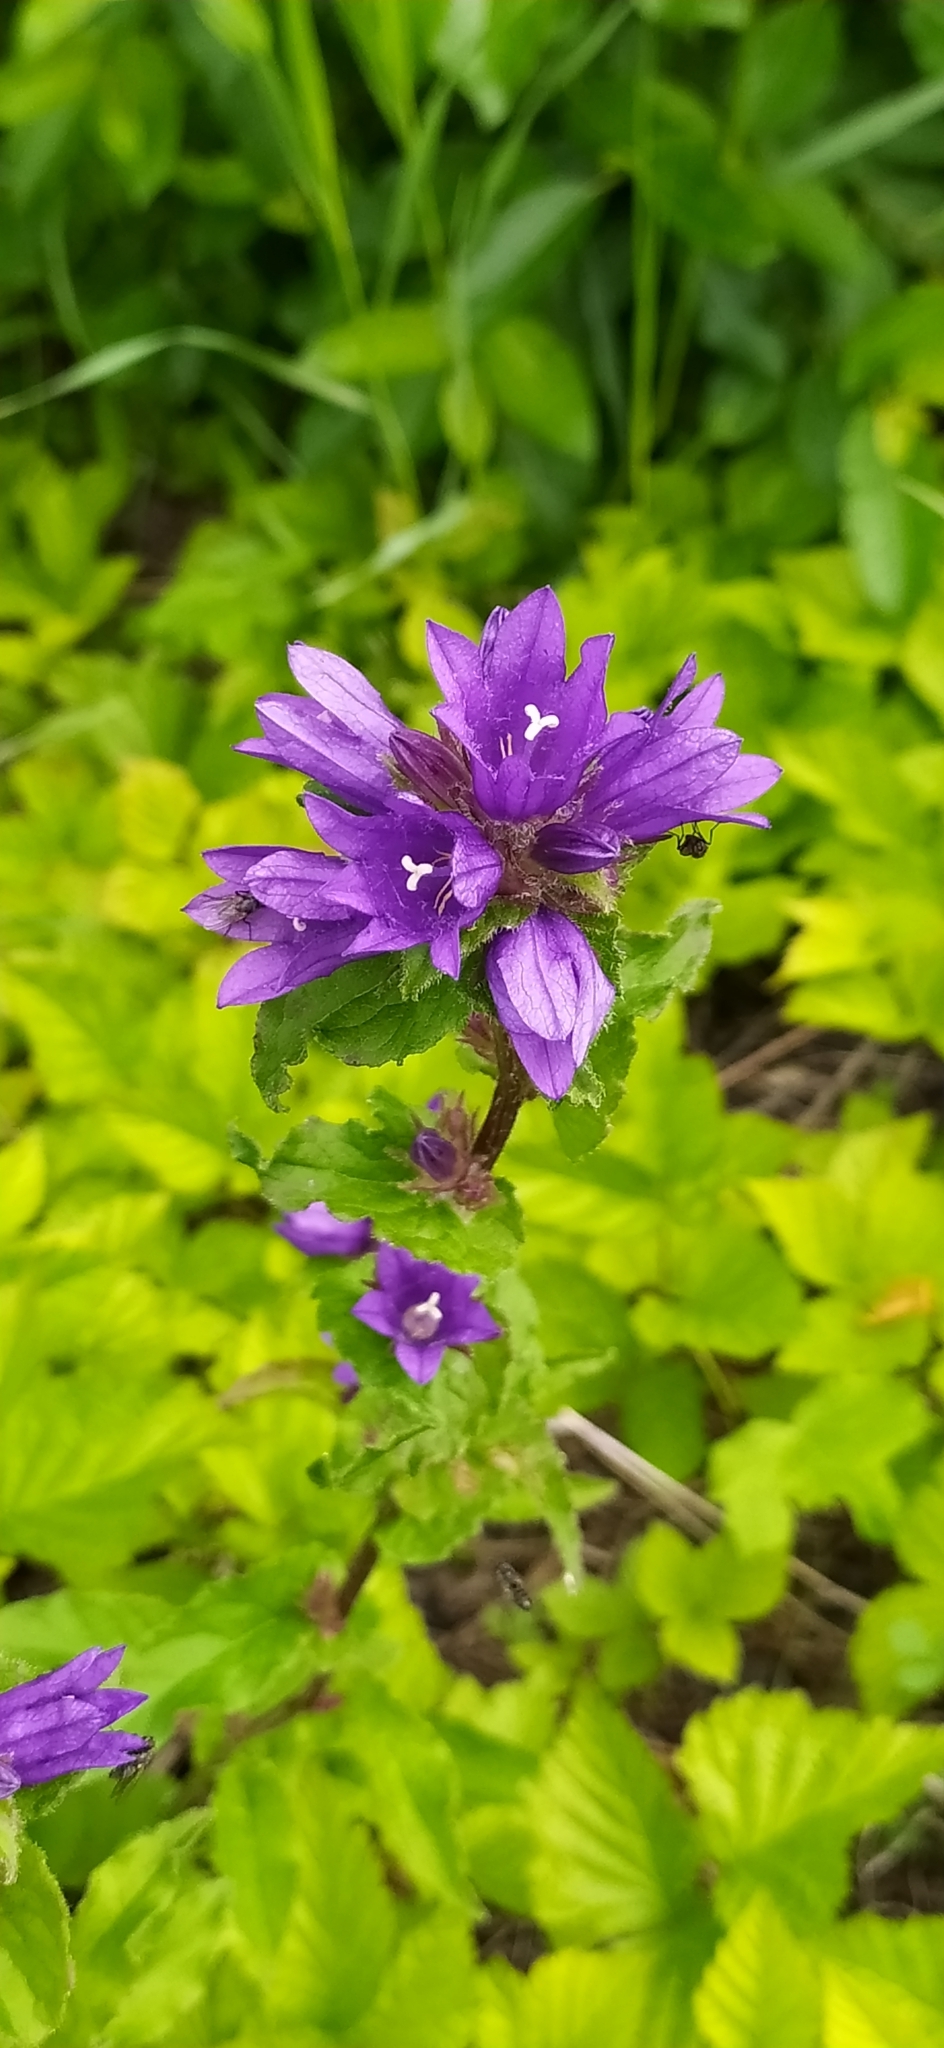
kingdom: Plantae
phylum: Tracheophyta
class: Magnoliopsida
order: Asterales
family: Campanulaceae
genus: Campanula
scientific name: Campanula glomerata
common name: Clustered bellflower
